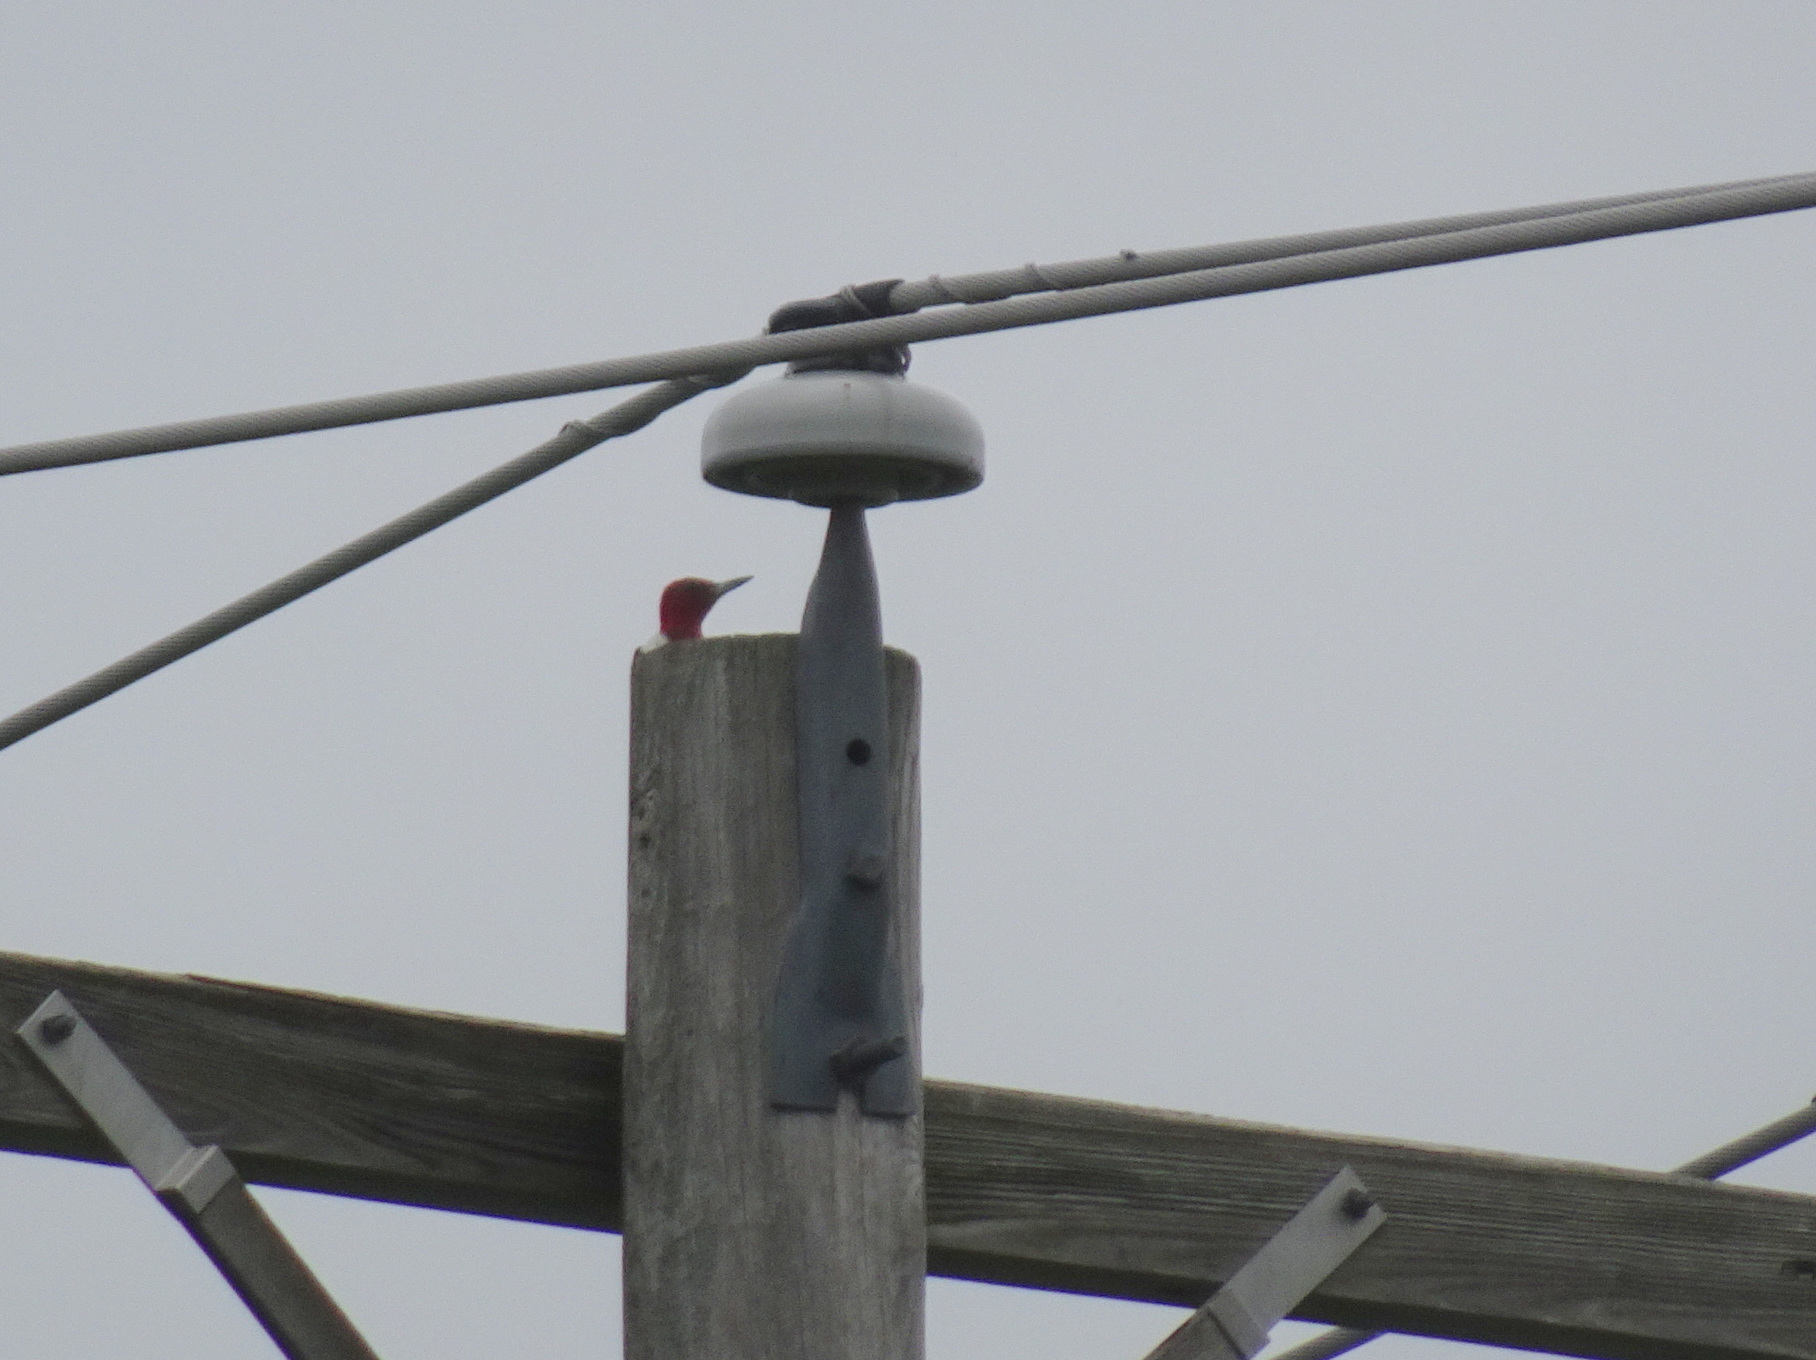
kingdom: Animalia
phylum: Chordata
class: Aves
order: Piciformes
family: Picidae
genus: Melanerpes
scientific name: Melanerpes erythrocephalus
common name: Red-headed woodpecker
